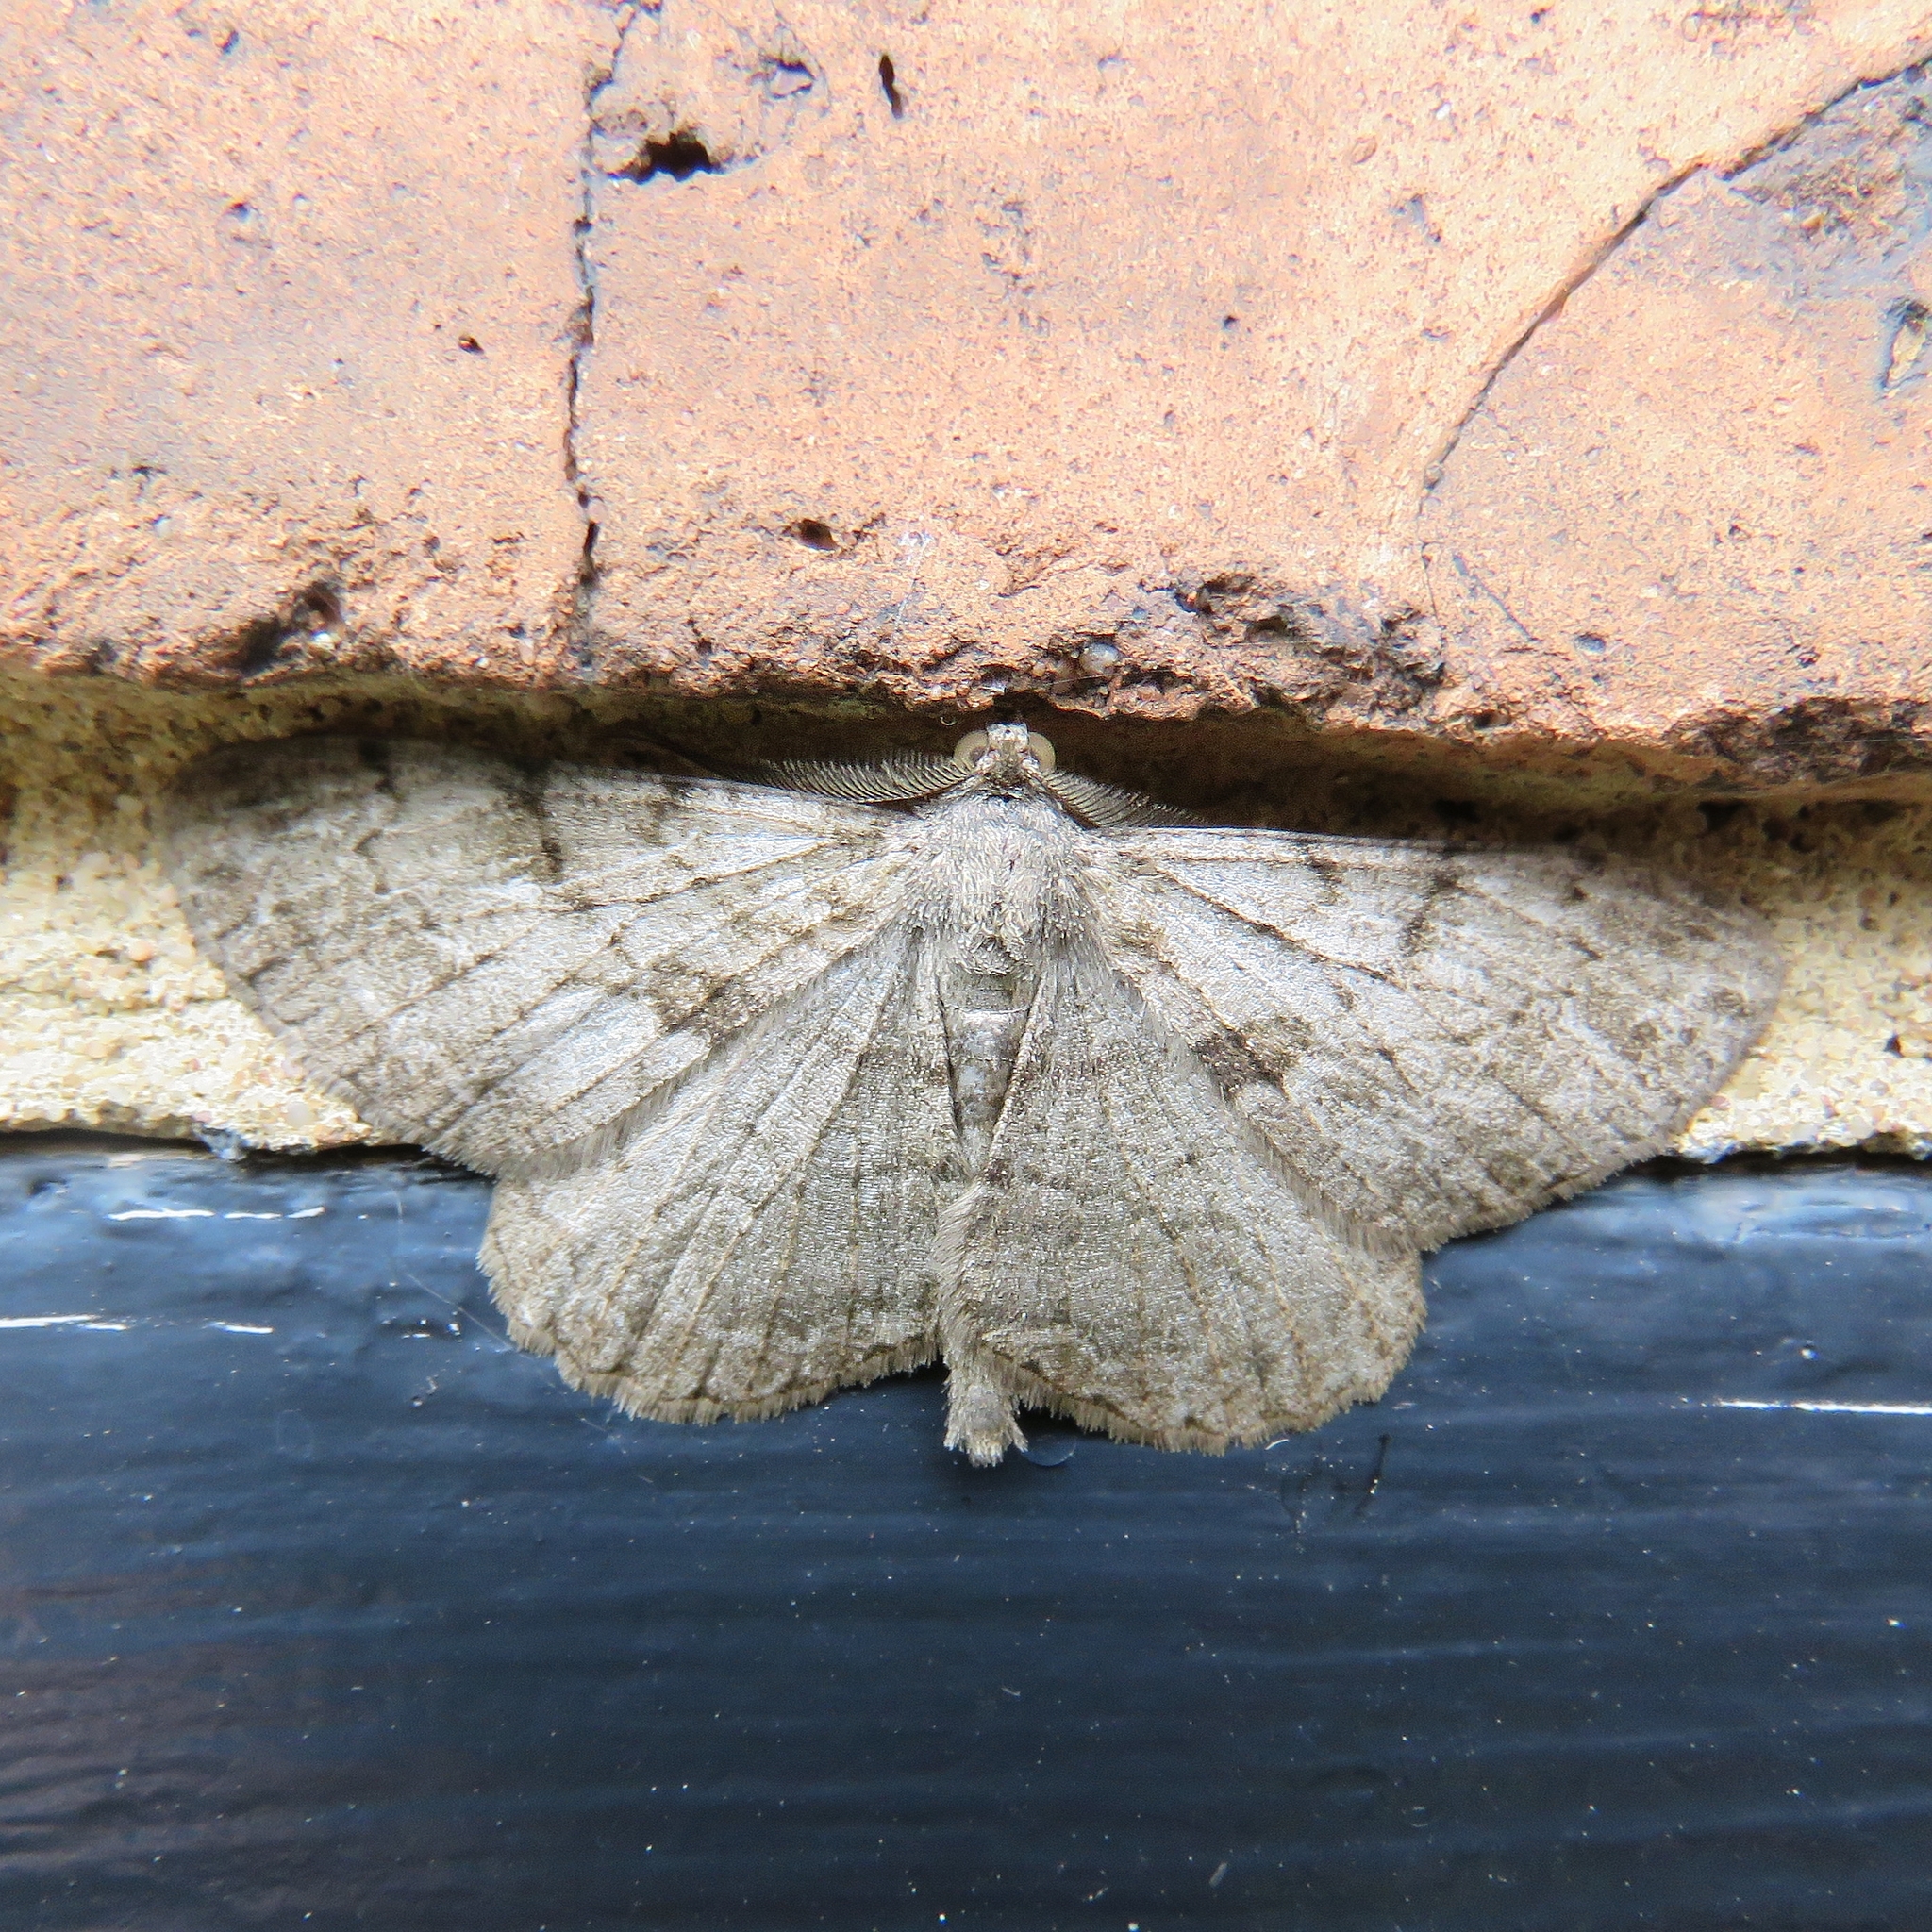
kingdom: Animalia
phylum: Arthropoda
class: Insecta
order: Lepidoptera
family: Geometridae
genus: Peribatodes
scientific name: Peribatodes rhomboidaria
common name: Willow beauty
